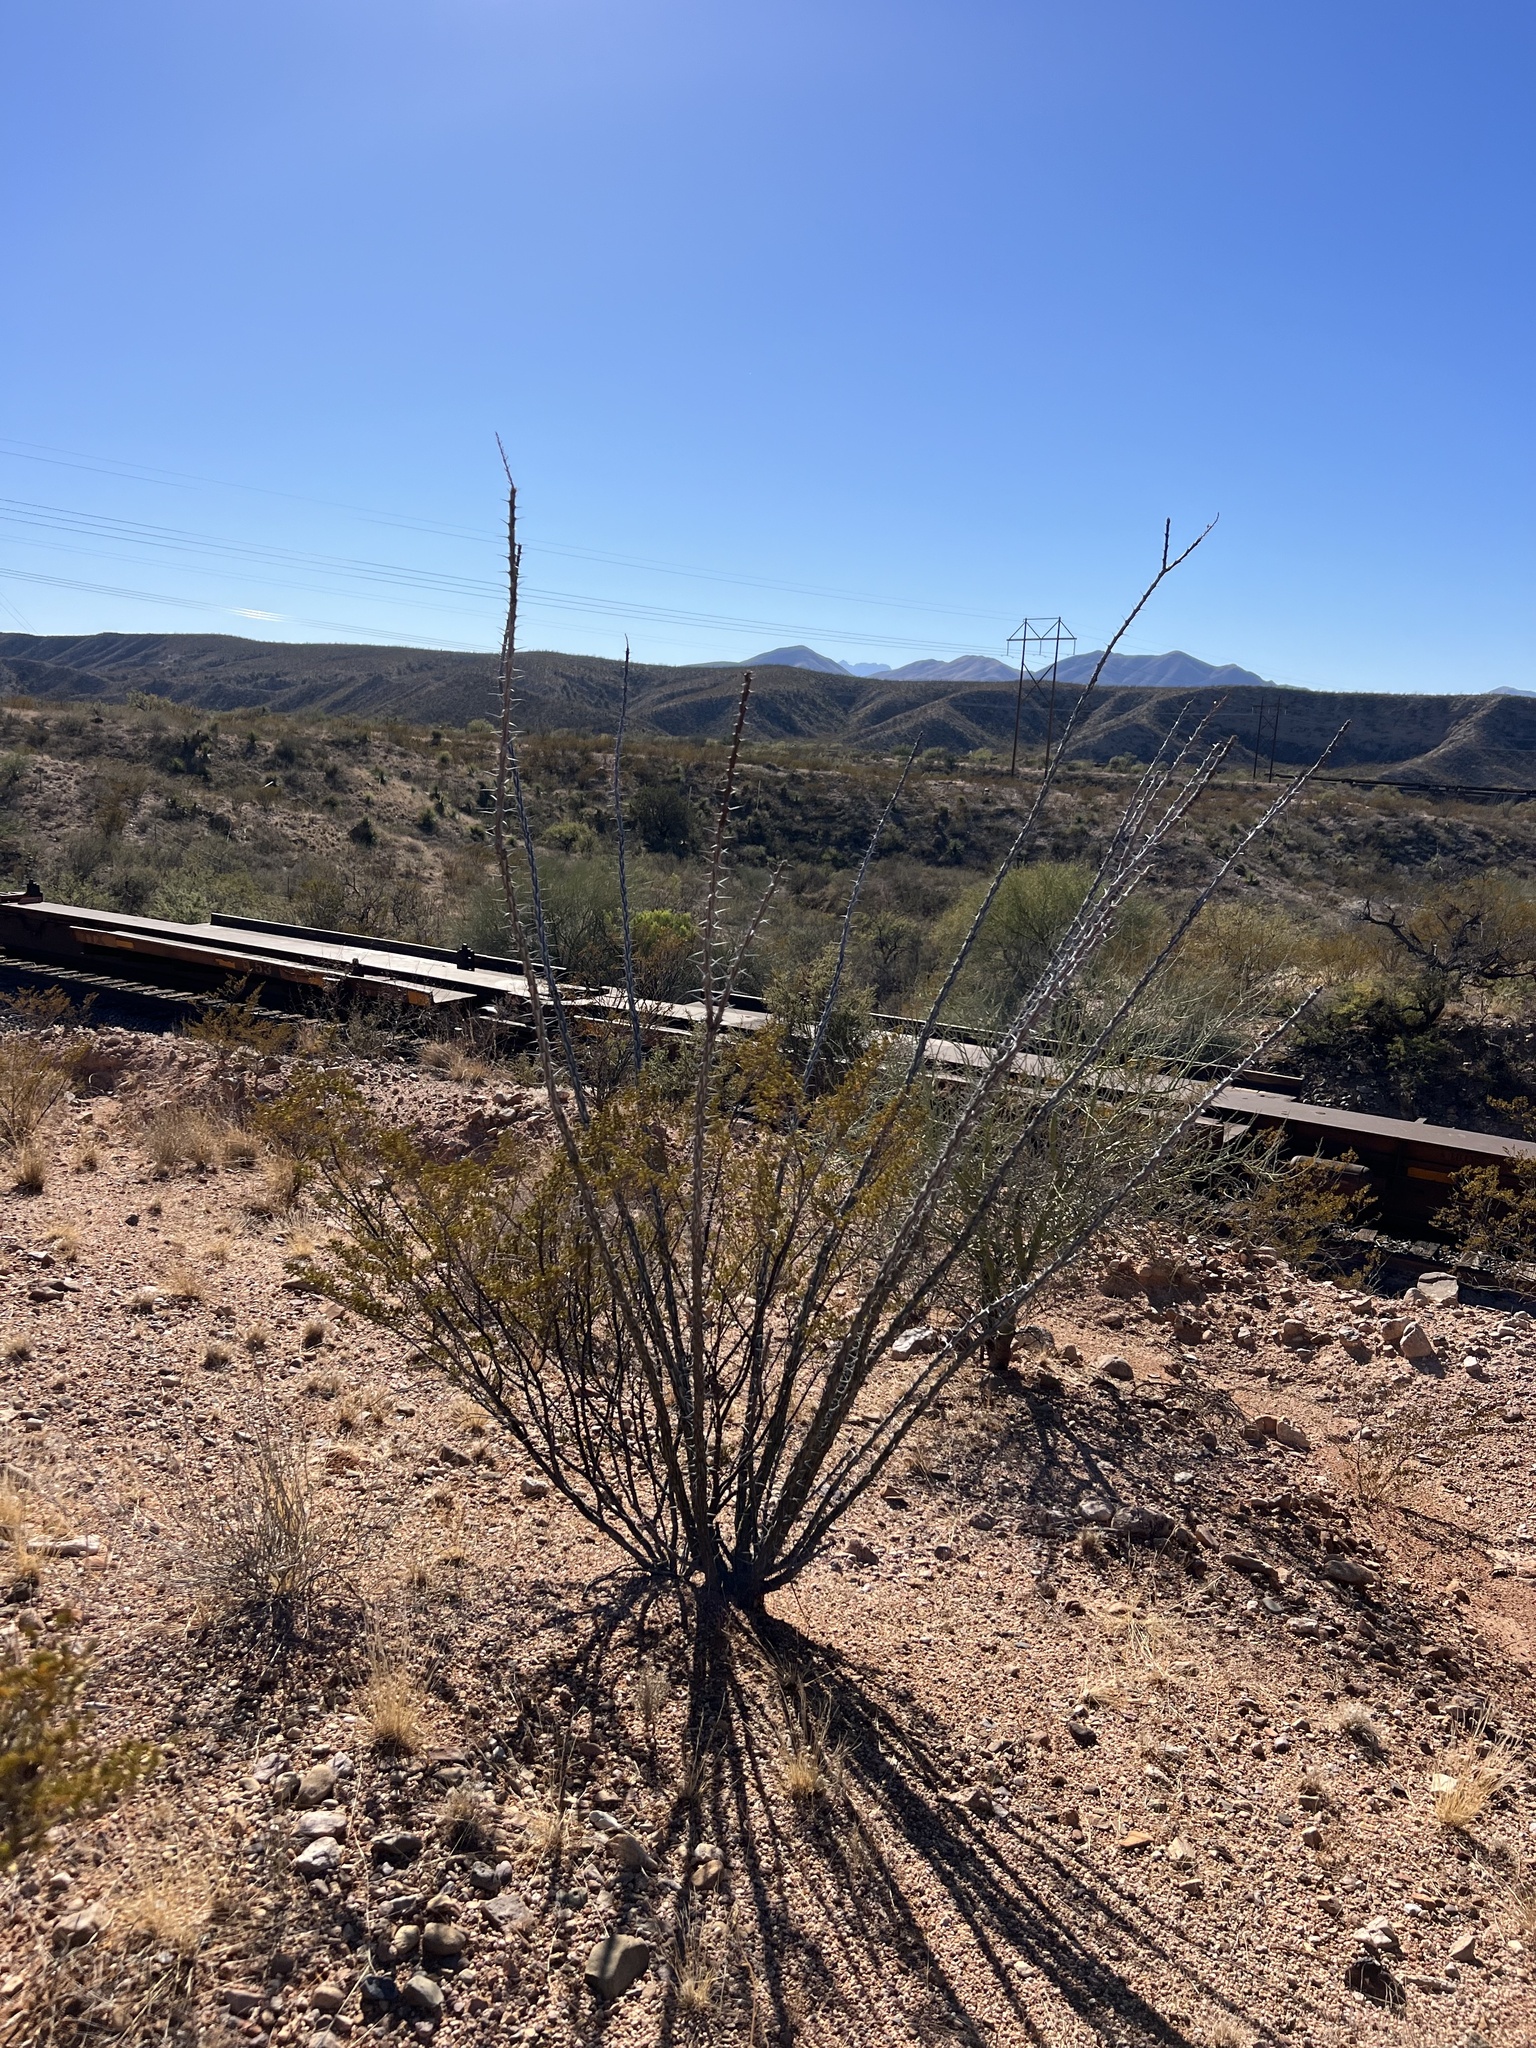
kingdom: Plantae
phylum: Tracheophyta
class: Magnoliopsida
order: Ericales
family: Fouquieriaceae
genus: Fouquieria
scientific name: Fouquieria splendens
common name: Vine-cactus
